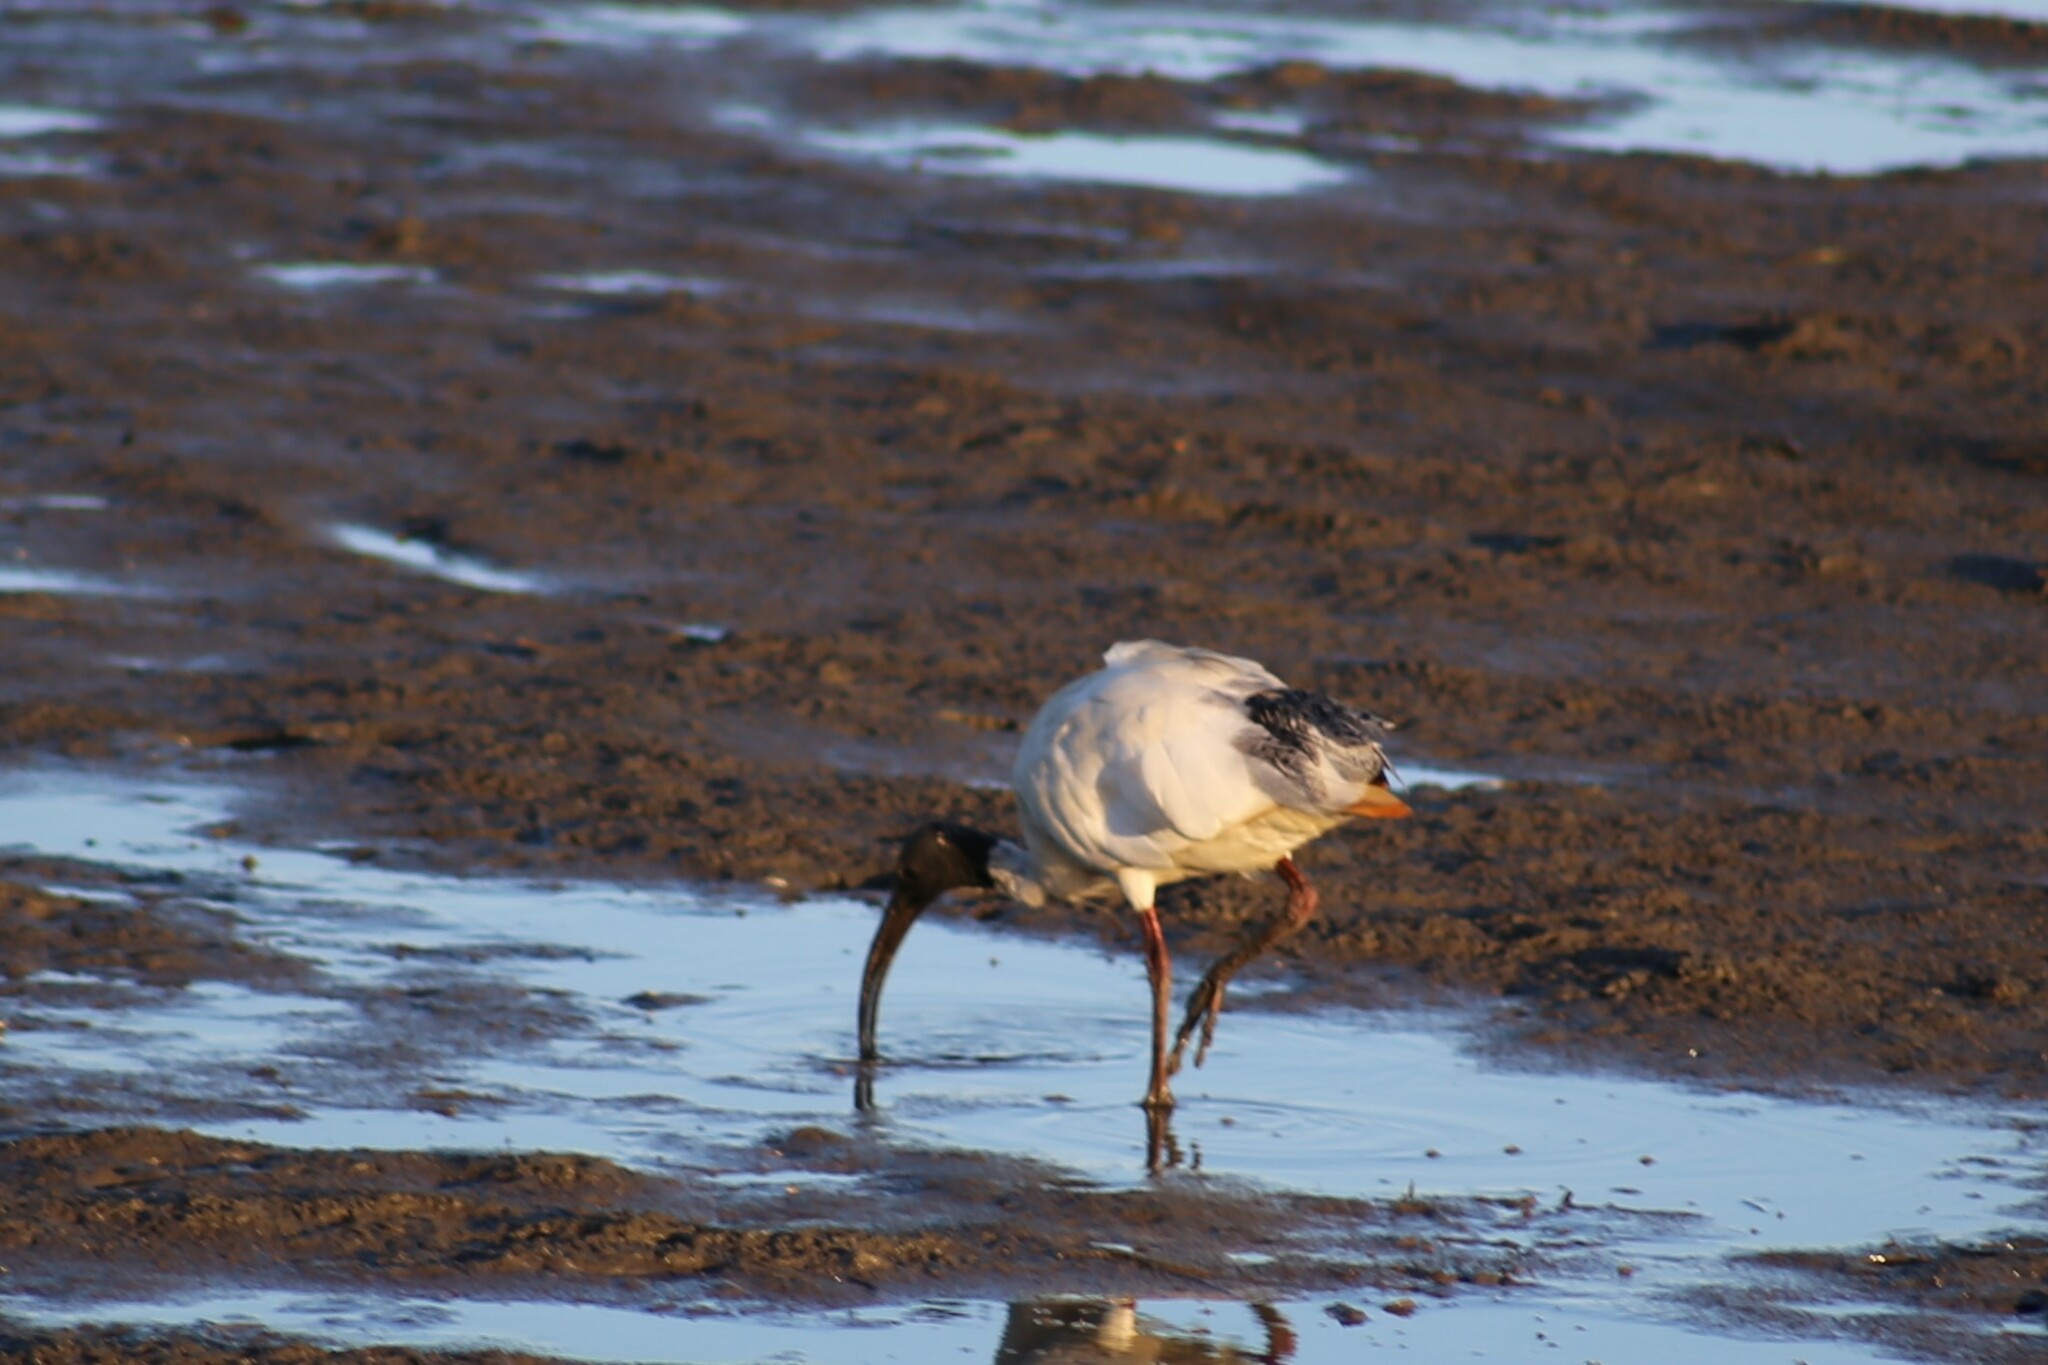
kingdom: Animalia
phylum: Chordata
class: Aves
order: Pelecaniformes
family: Threskiornithidae
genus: Threskiornis
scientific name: Threskiornis molucca
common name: Australian white ibis
